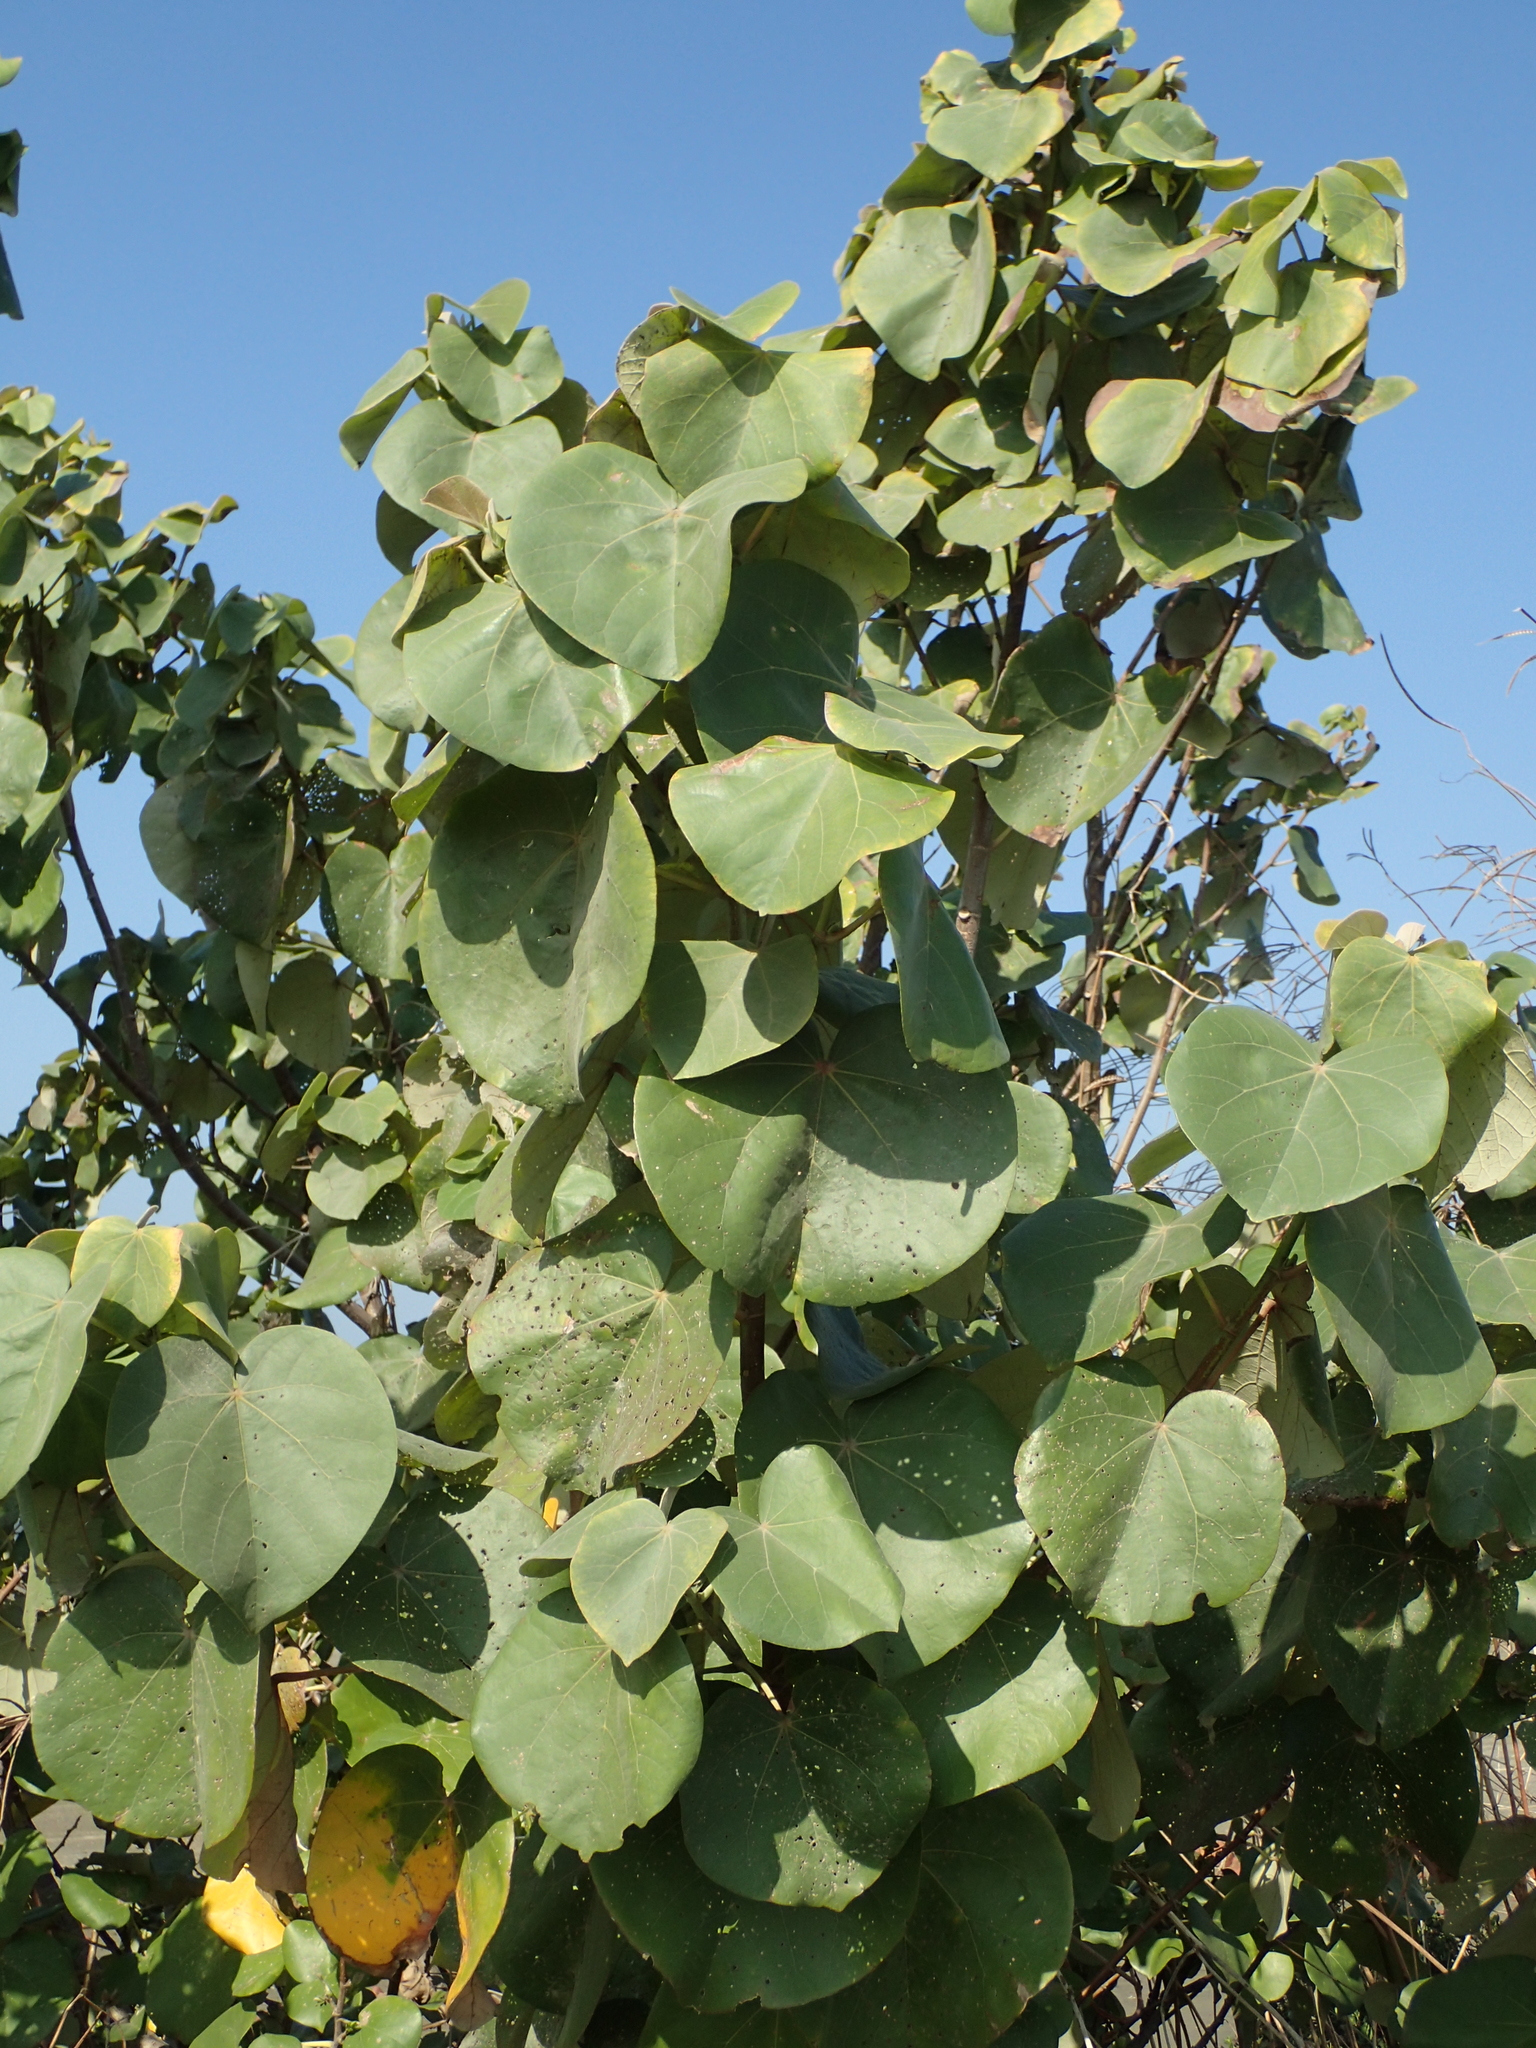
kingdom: Plantae
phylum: Tracheophyta
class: Magnoliopsida
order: Malvales
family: Malvaceae
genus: Talipariti
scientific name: Talipariti tiliaceum
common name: Sea hibiscus
